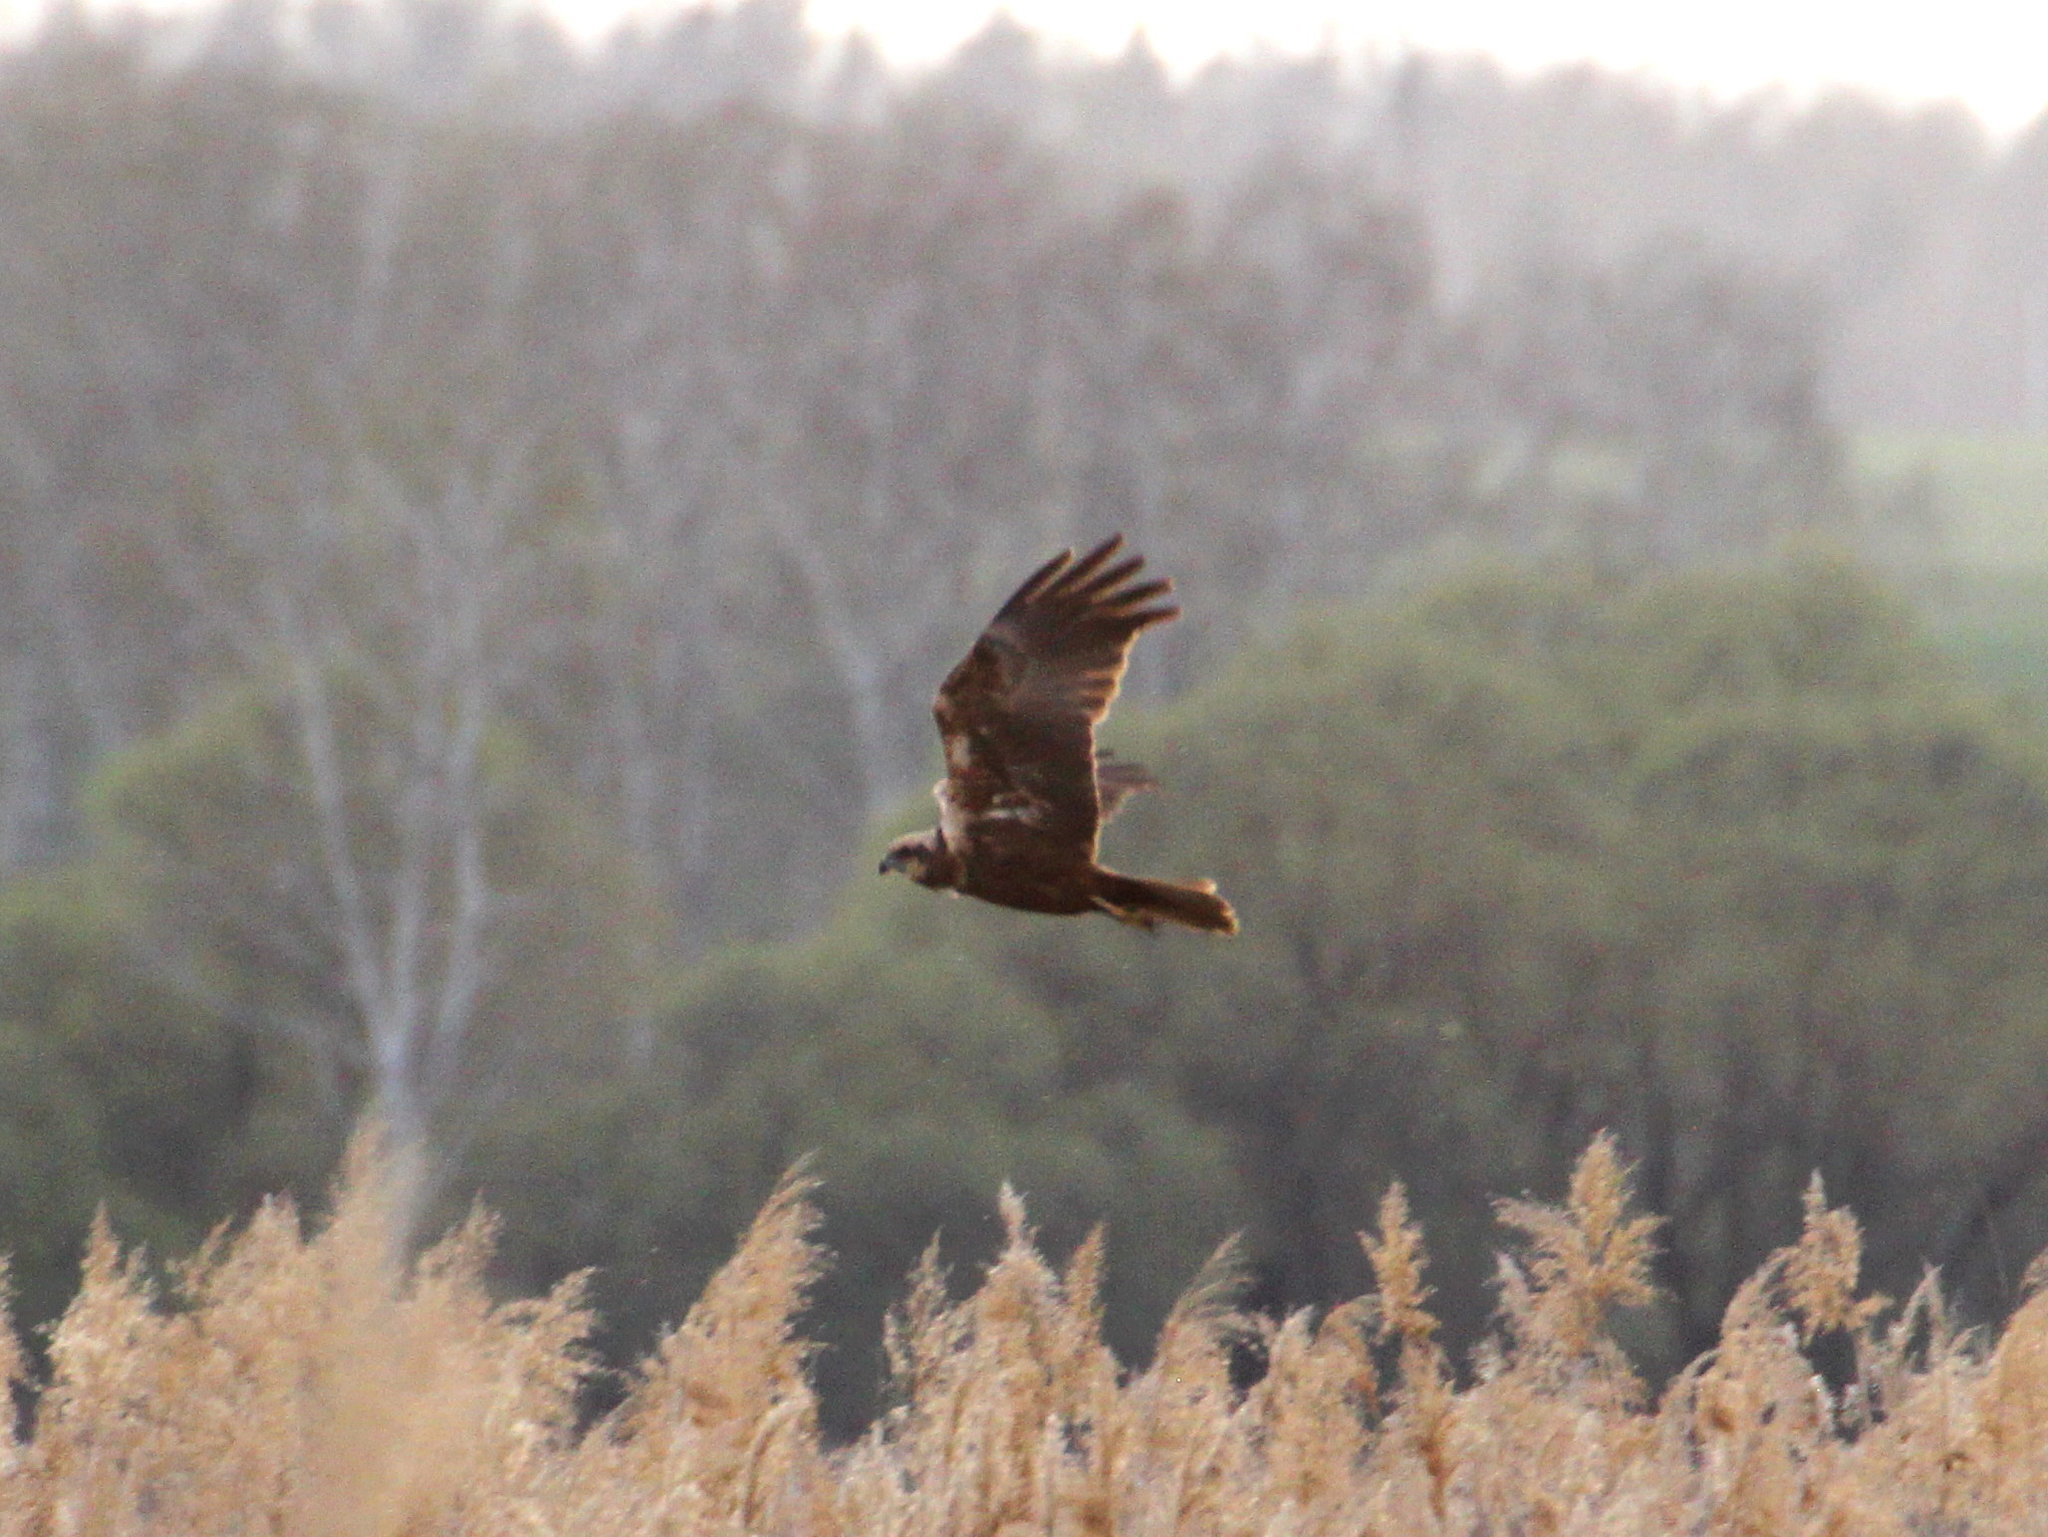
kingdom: Animalia
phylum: Chordata
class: Aves
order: Accipitriformes
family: Accipitridae
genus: Circus
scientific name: Circus aeruginosus
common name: Western marsh harrier
